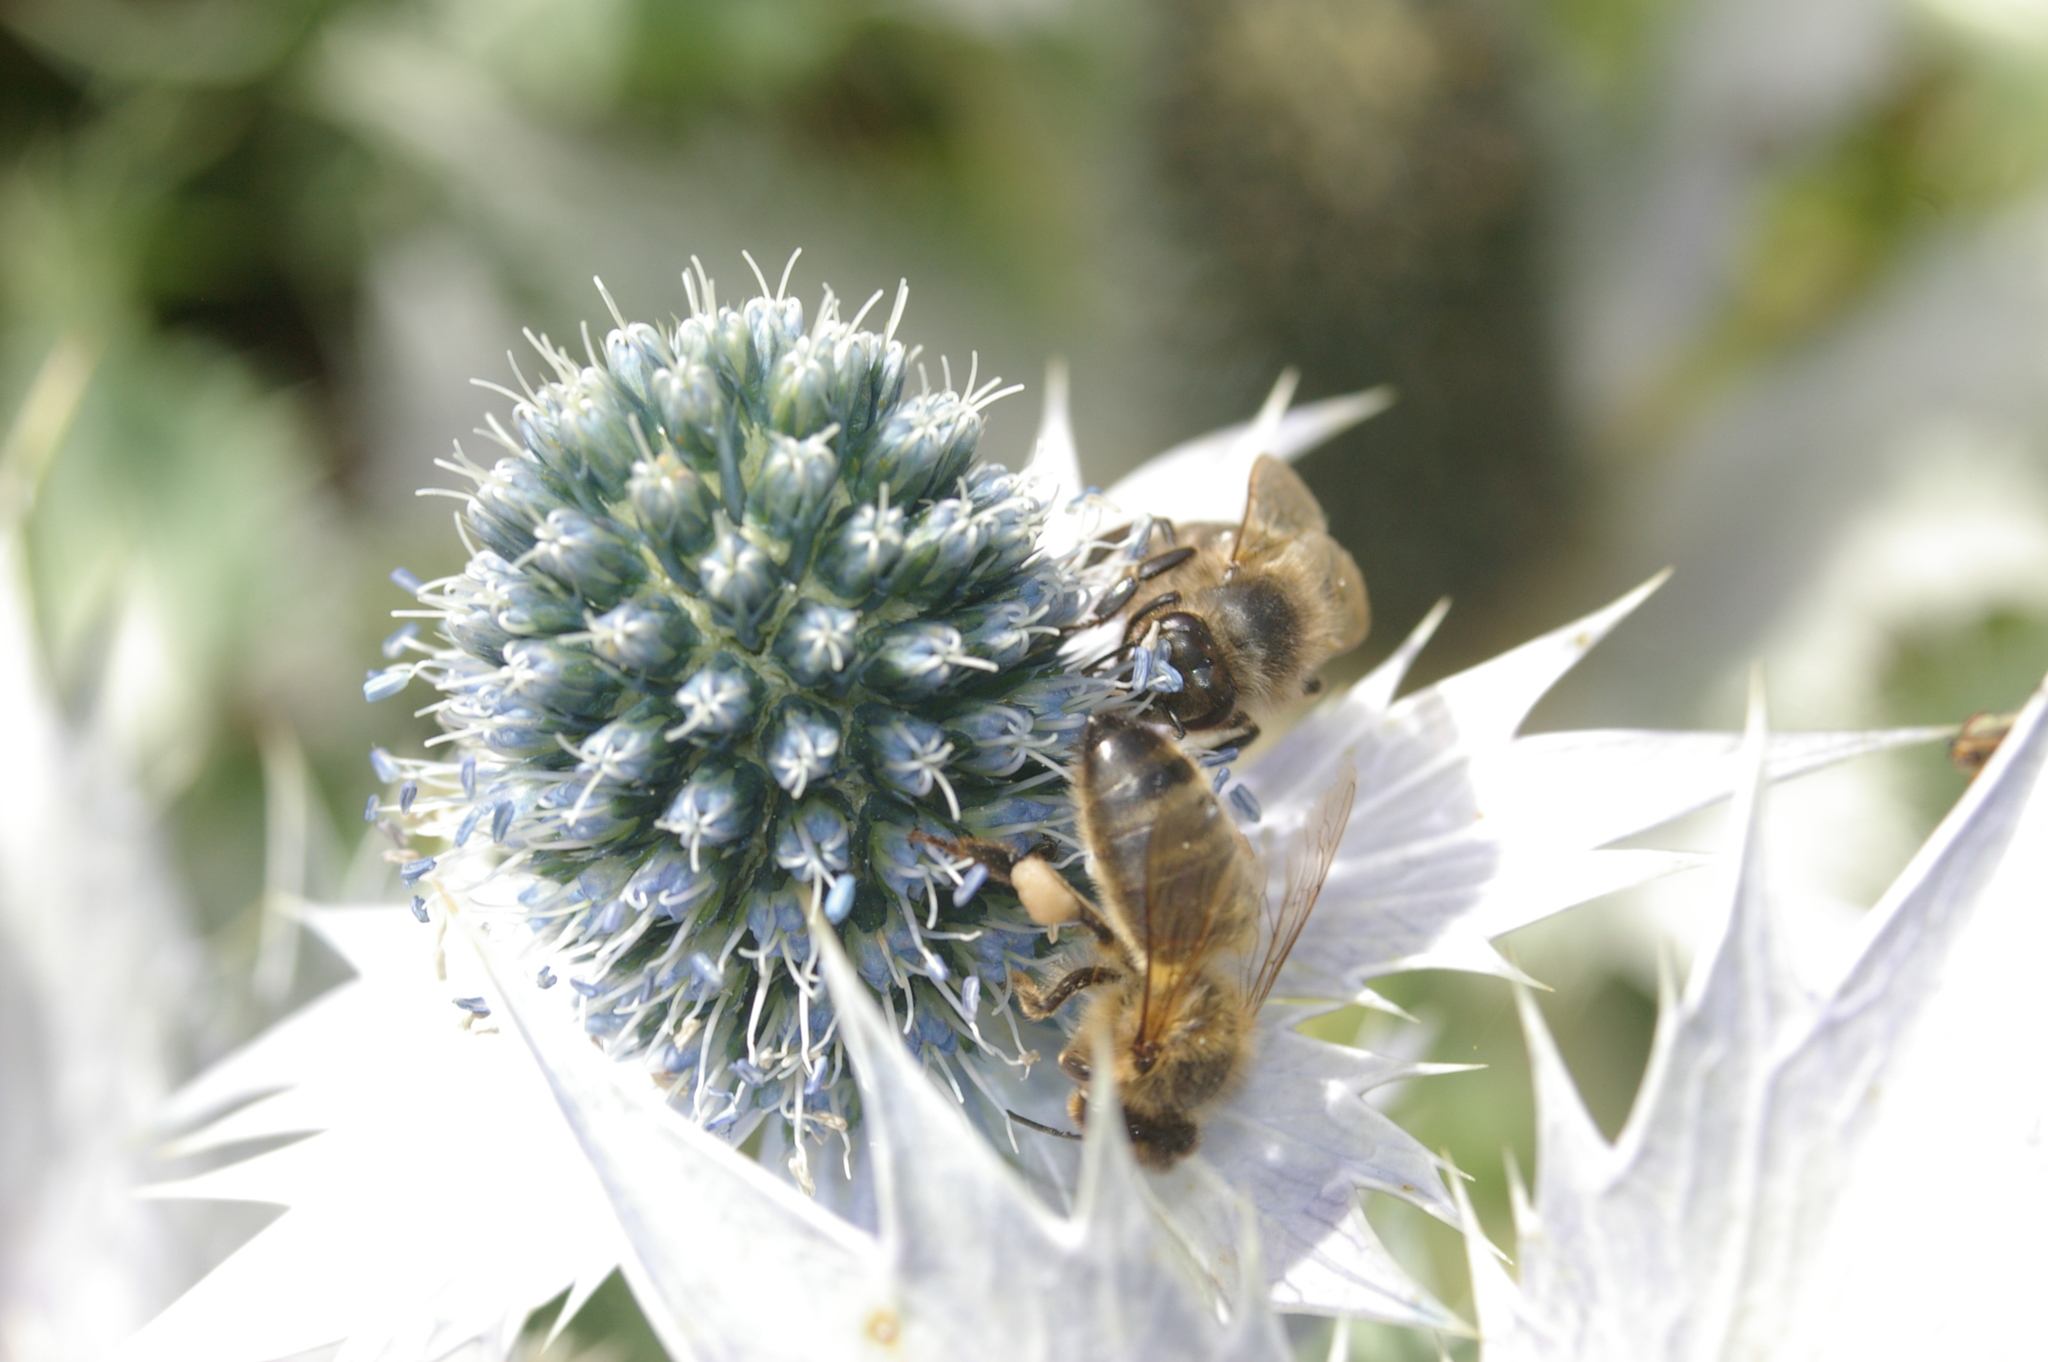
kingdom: Animalia
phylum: Arthropoda
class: Insecta
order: Hymenoptera
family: Apidae
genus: Apis
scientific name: Apis mellifera
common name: Honey bee
